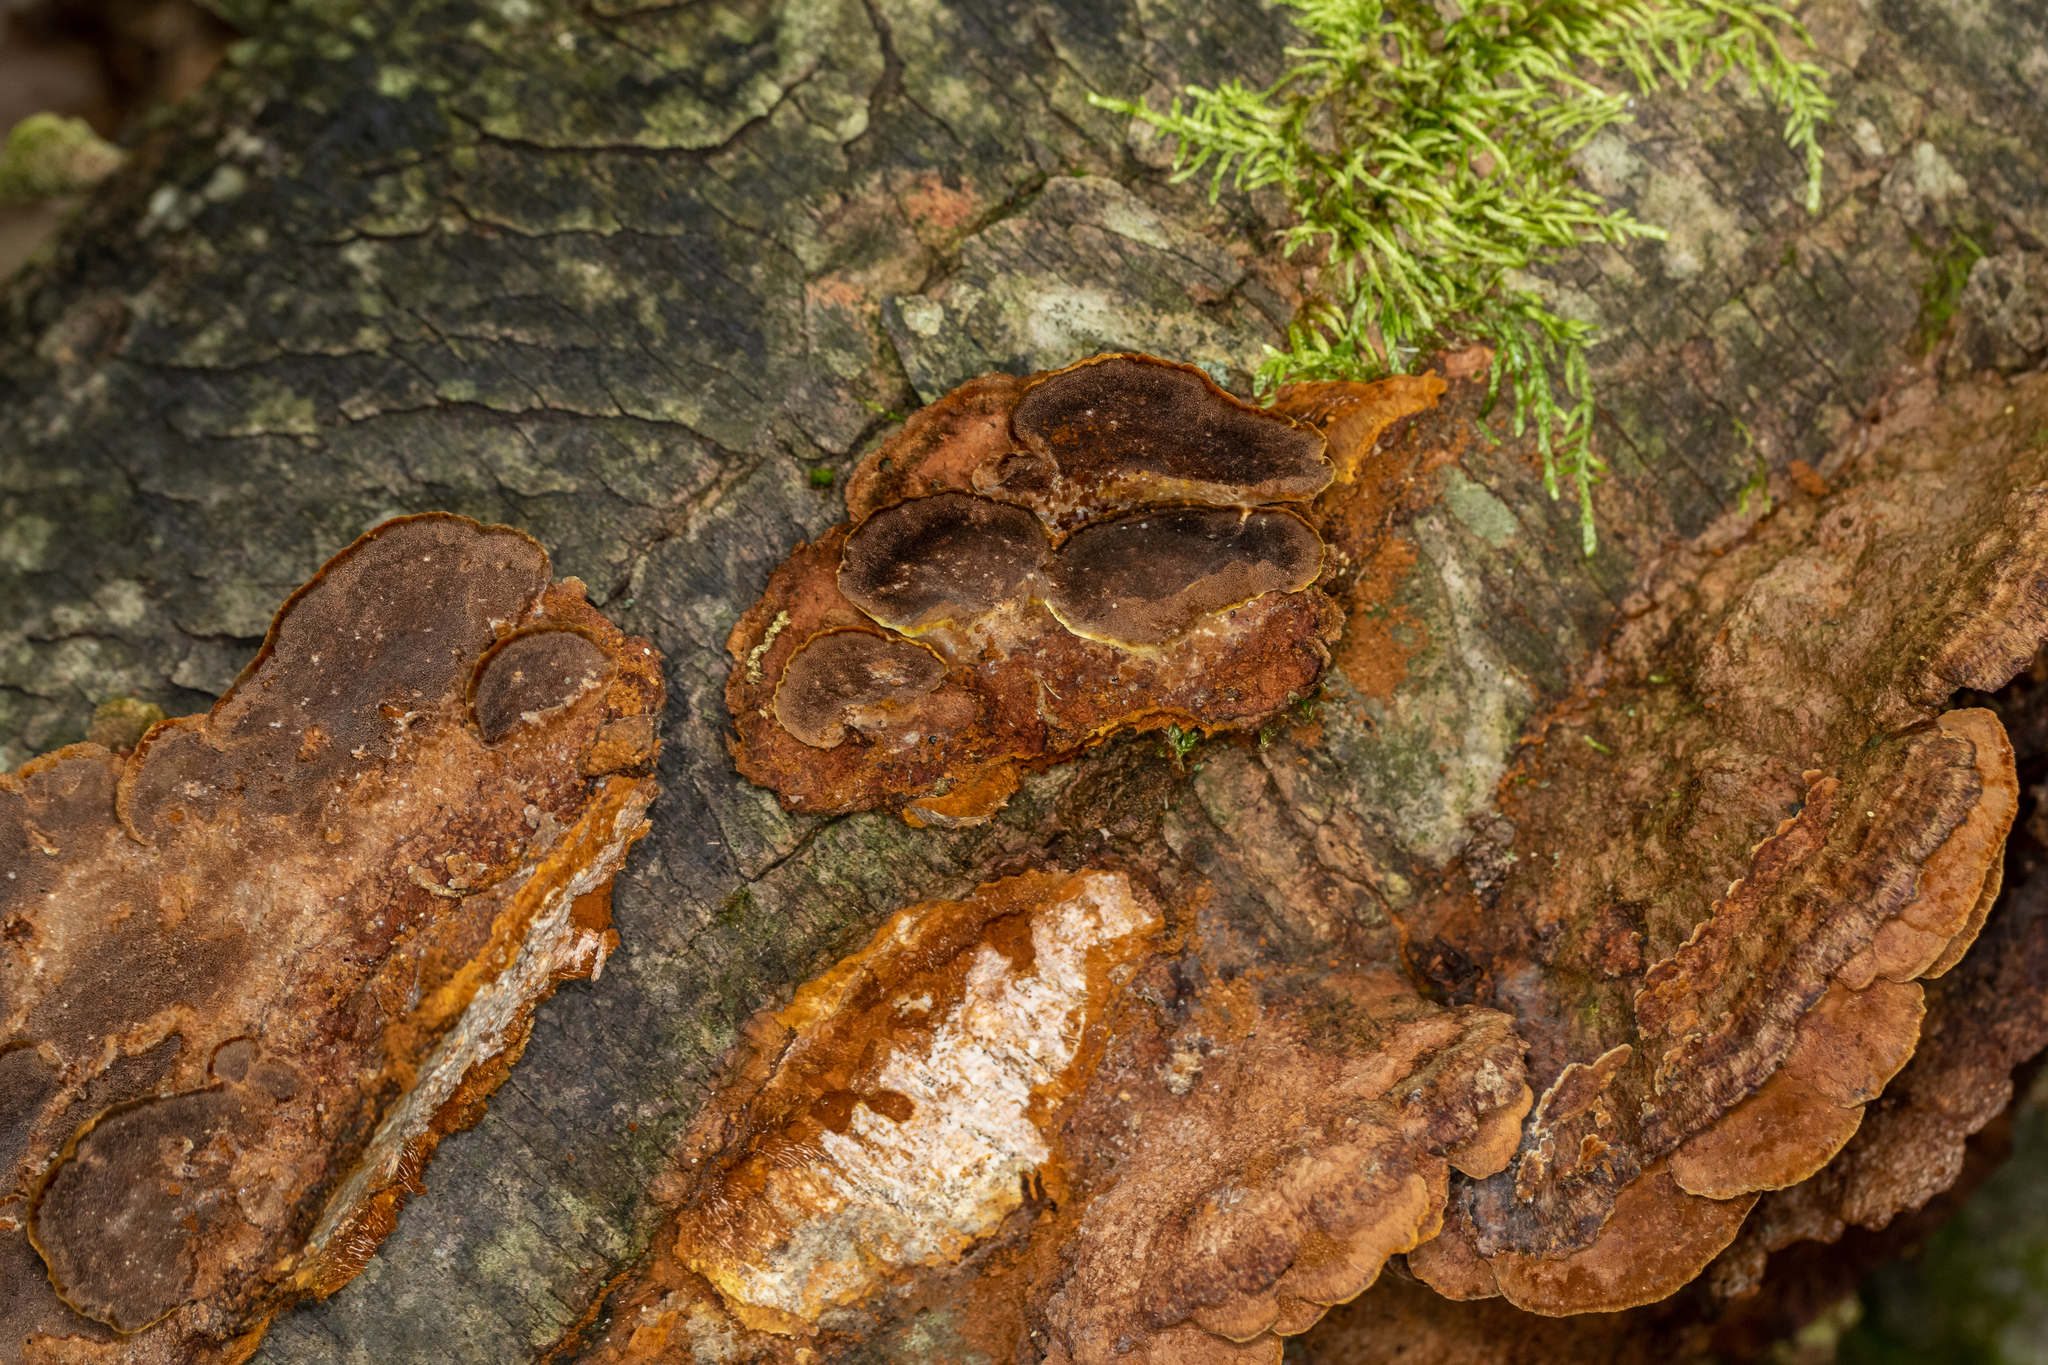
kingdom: Fungi
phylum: Basidiomycota
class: Agaricomycetes
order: Hymenochaetales
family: Hymenochaetaceae
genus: Phellinus
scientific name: Phellinus gilvus
